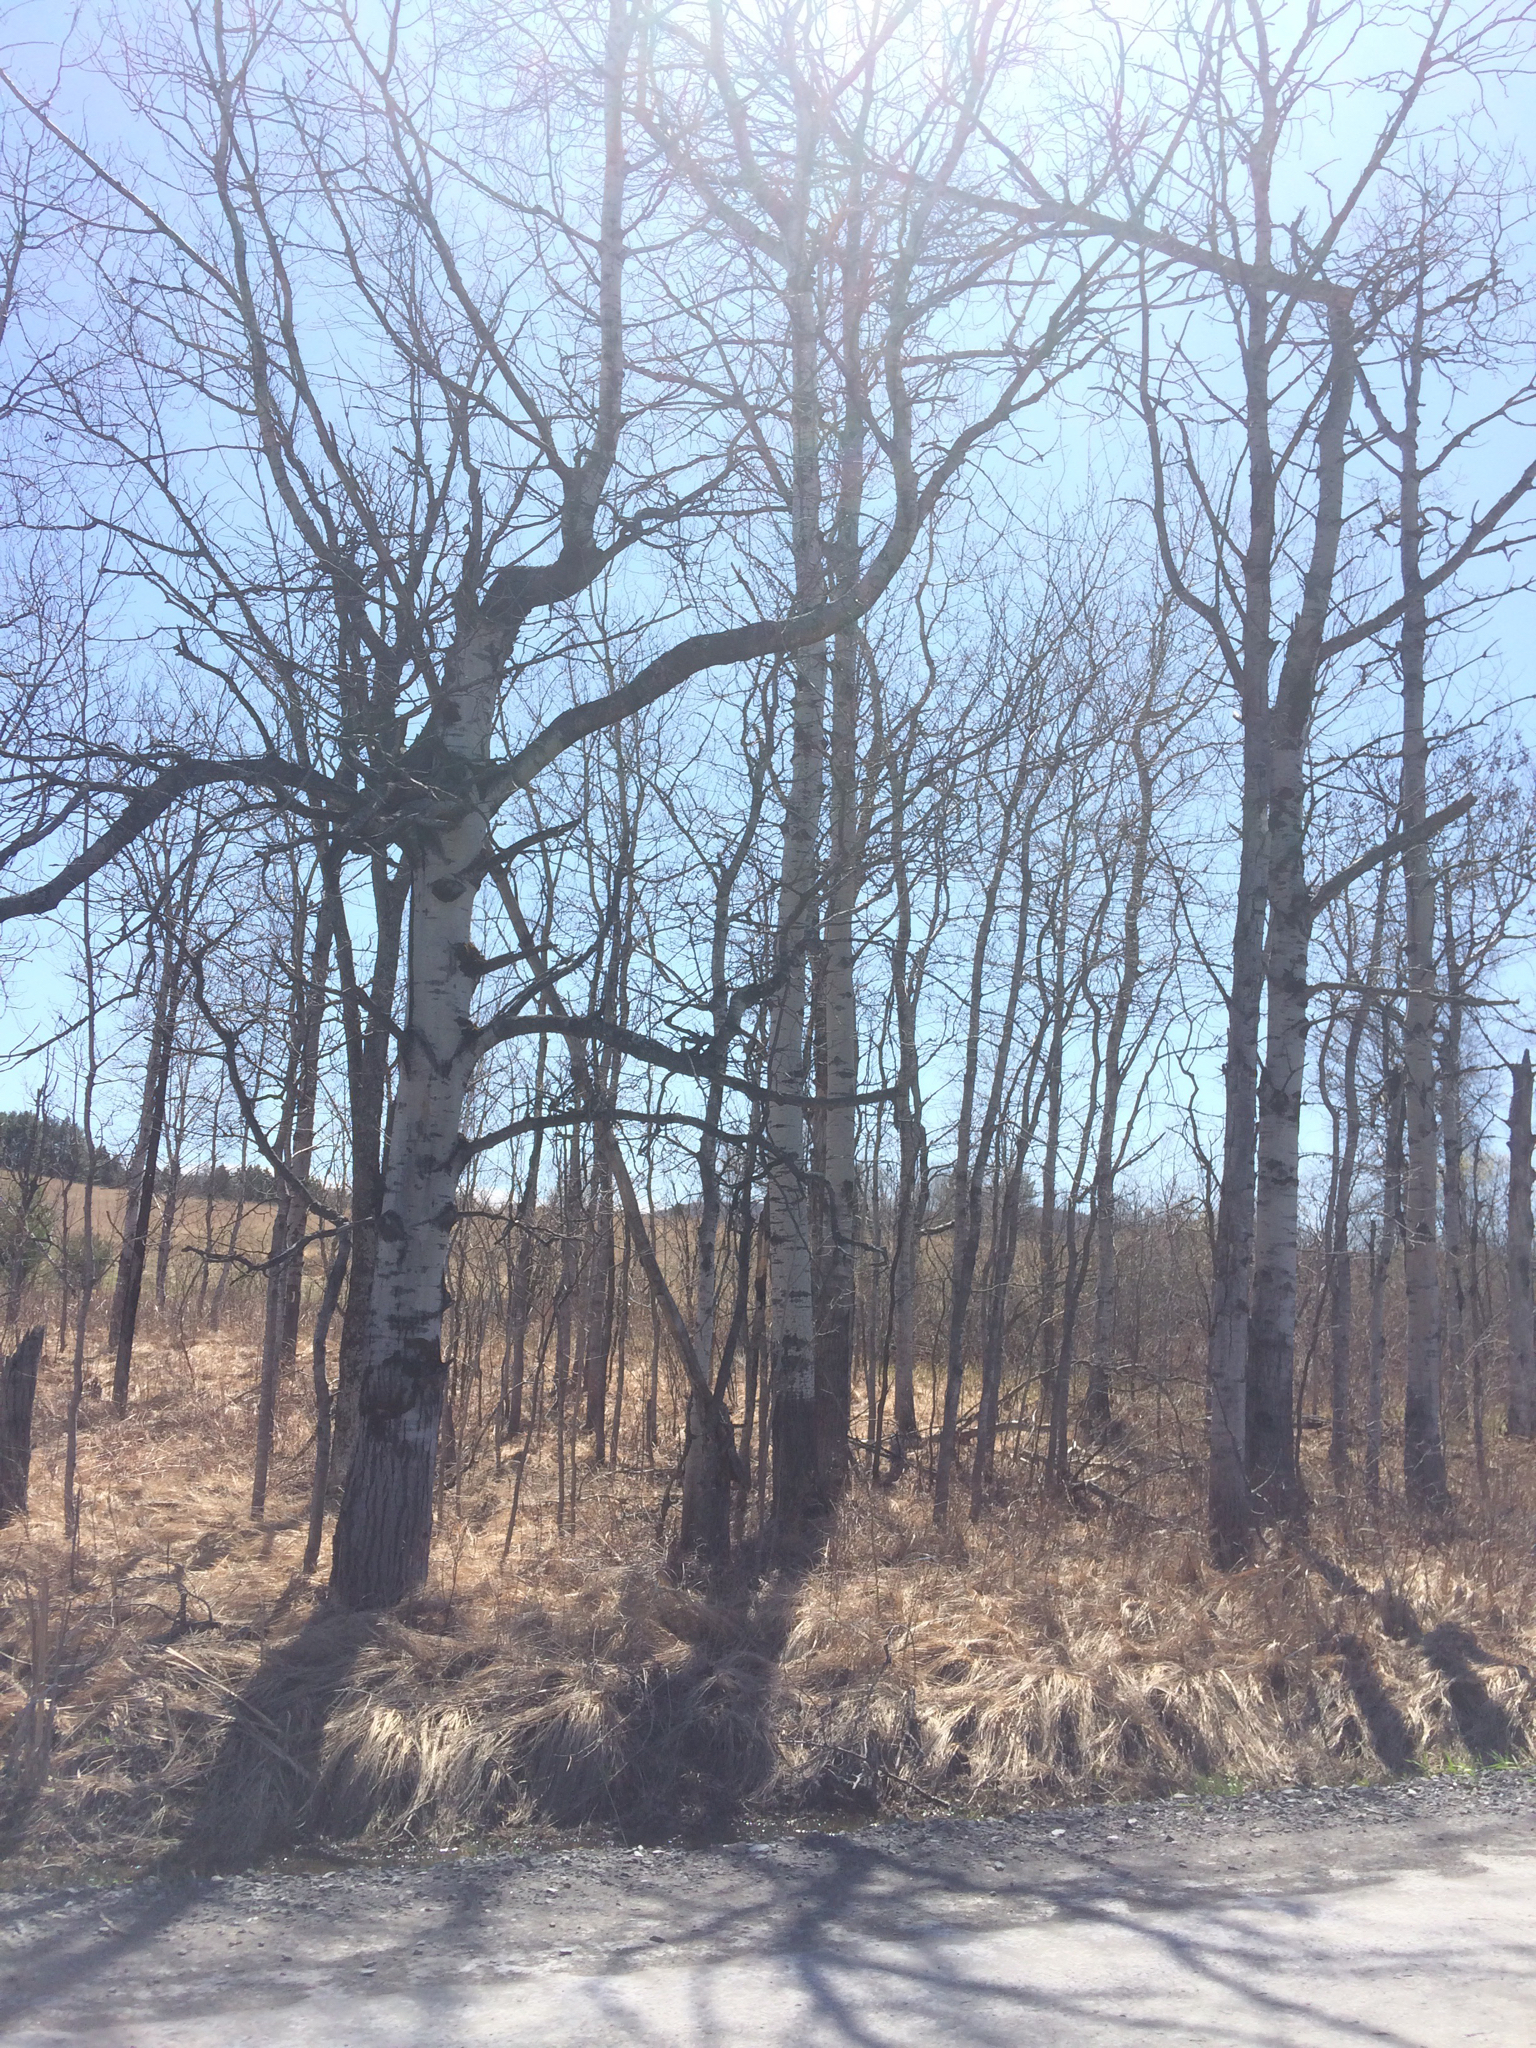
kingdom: Plantae
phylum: Tracheophyta
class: Magnoliopsida
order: Malpighiales
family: Salicaceae
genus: Populus
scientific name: Populus tremuloides
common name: Quaking aspen
